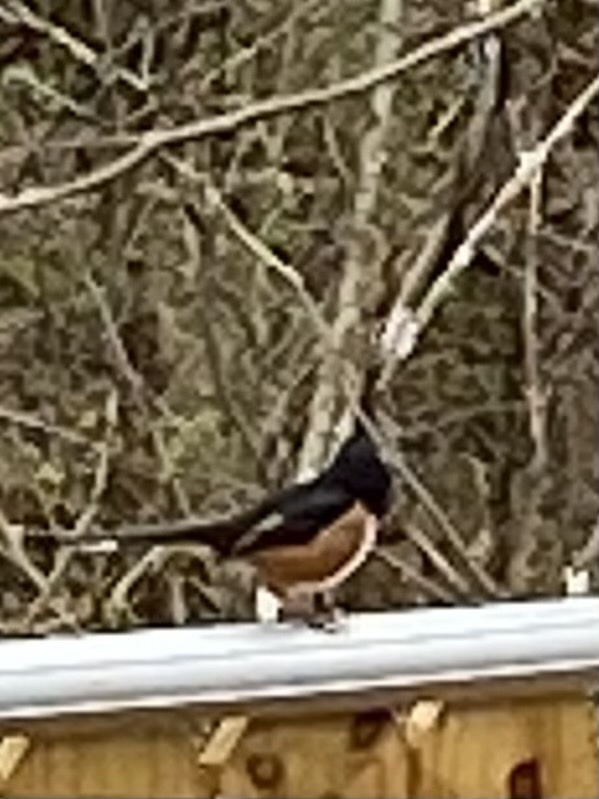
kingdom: Animalia
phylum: Chordata
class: Aves
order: Passeriformes
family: Passerellidae
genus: Pipilo
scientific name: Pipilo erythrophthalmus
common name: Eastern towhee
